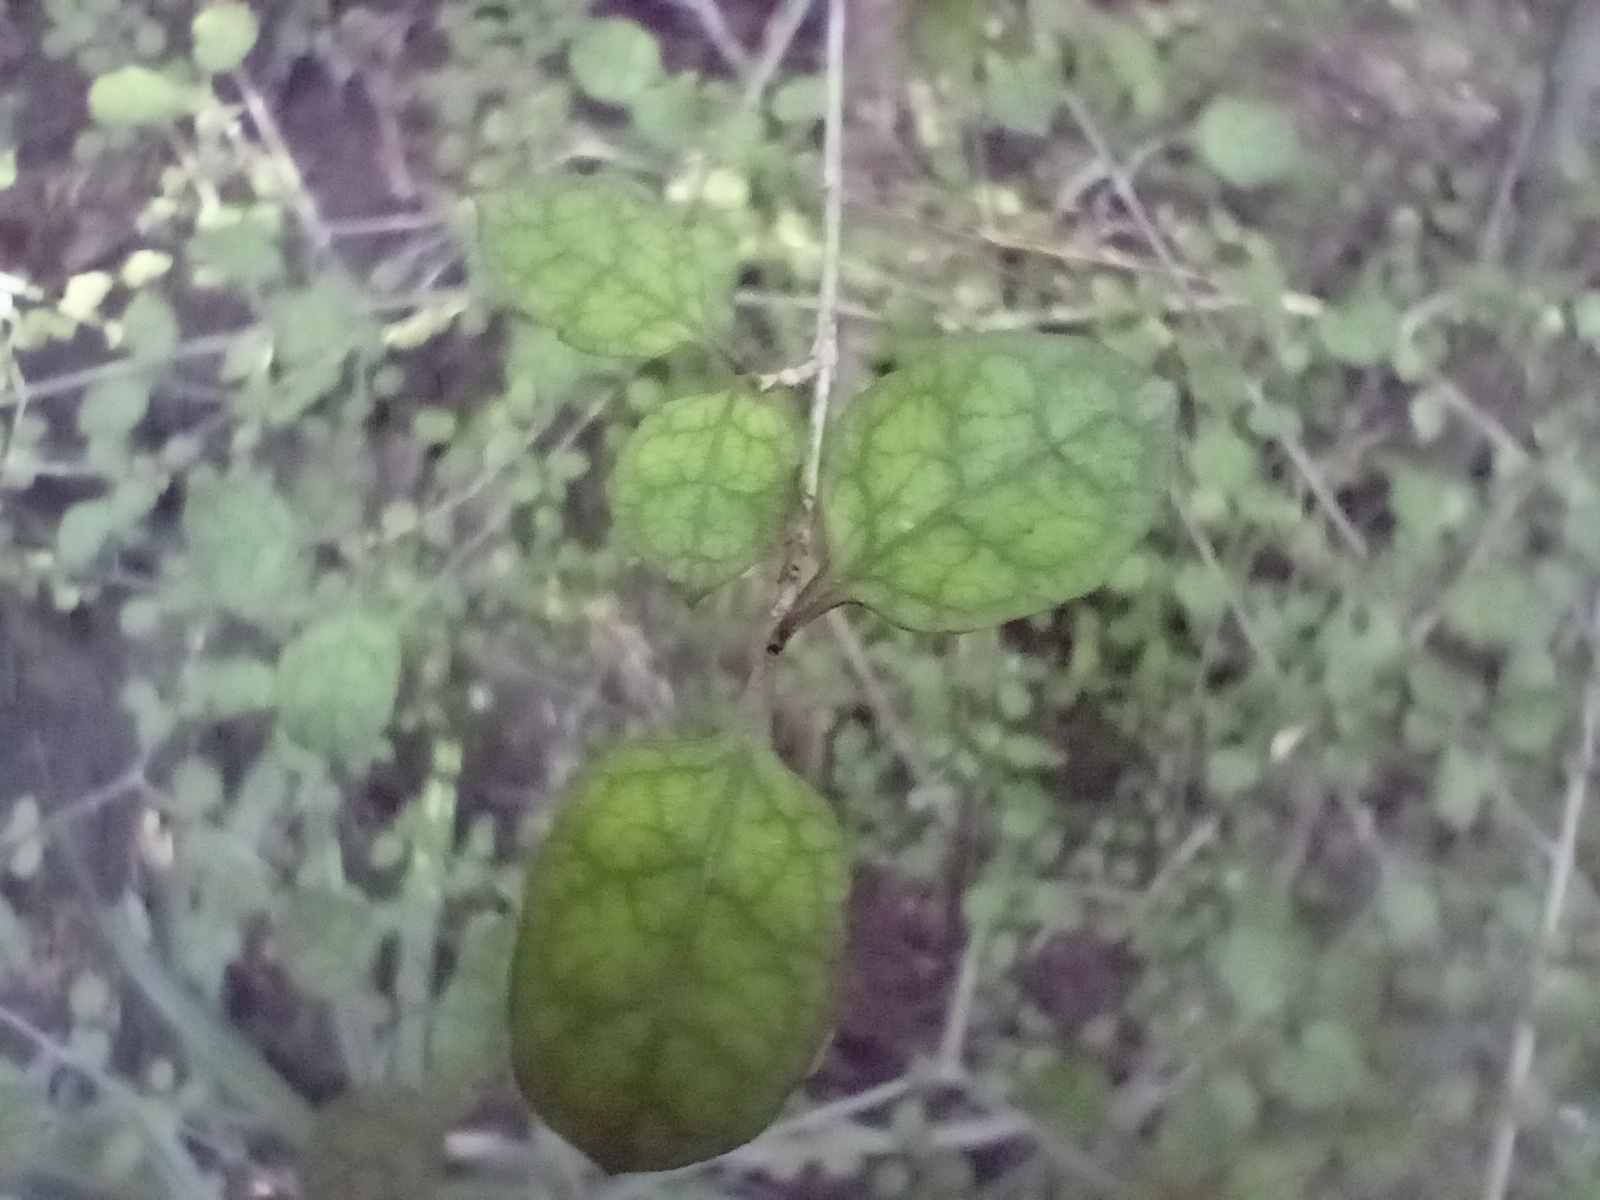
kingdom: Plantae
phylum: Tracheophyta
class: Magnoliopsida
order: Gentianales
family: Rubiaceae
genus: Coprosma
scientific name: Coprosma areolata
